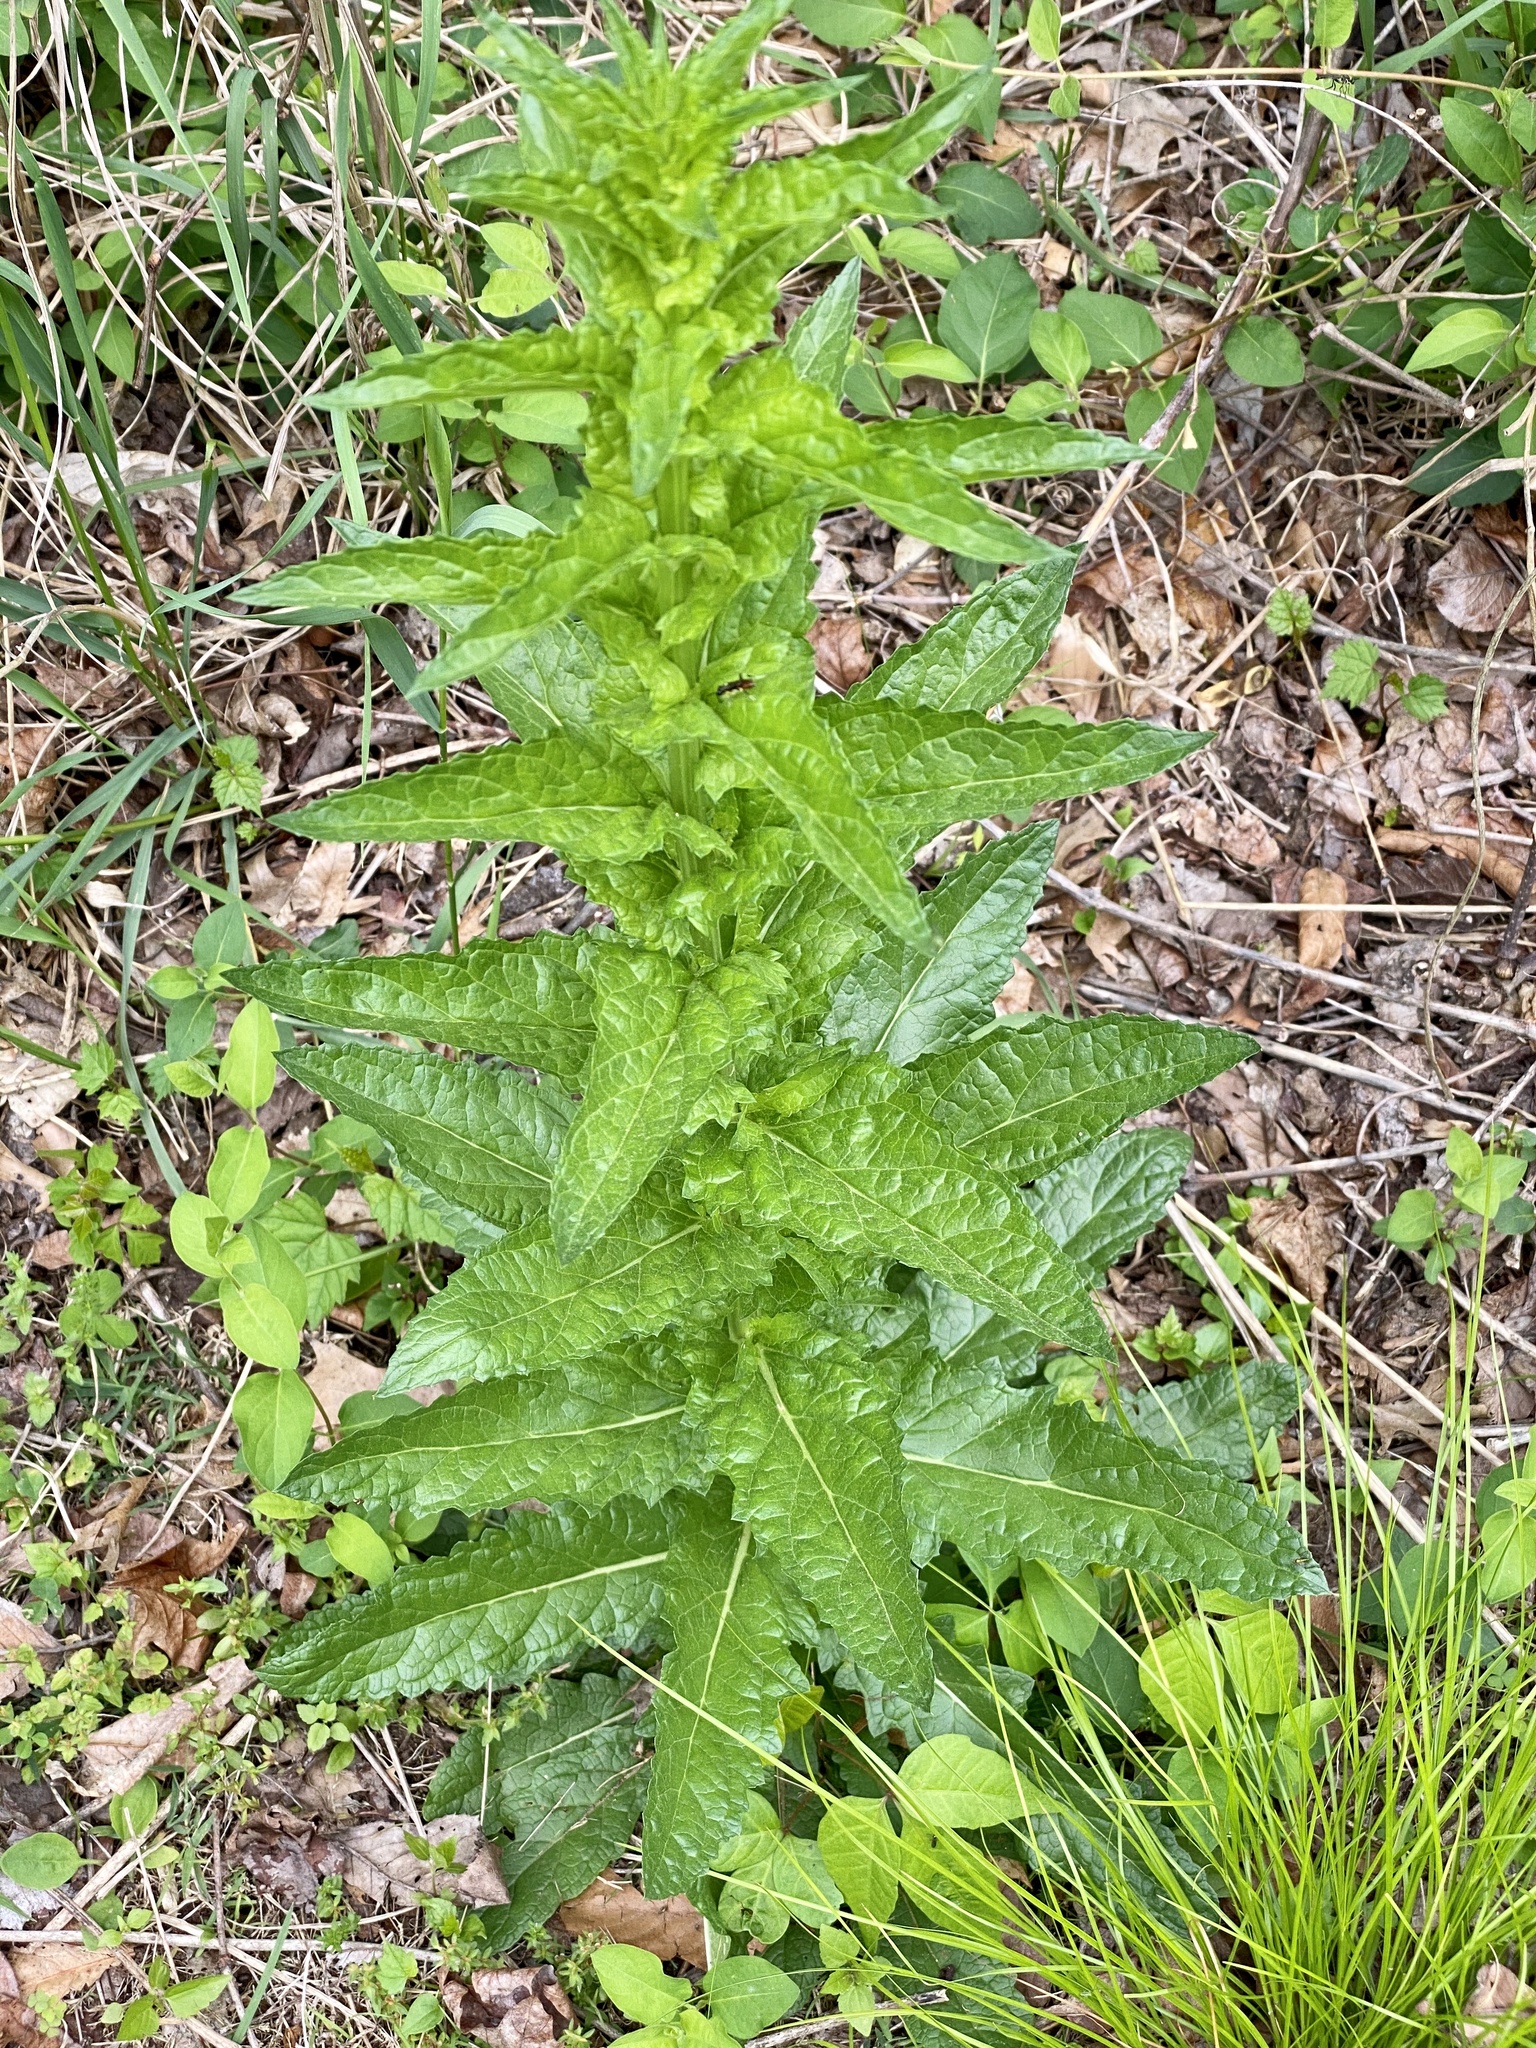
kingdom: Plantae
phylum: Tracheophyta
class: Magnoliopsida
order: Lamiales
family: Scrophulariaceae
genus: Verbascum
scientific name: Verbascum blattaria
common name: Moth mullein
